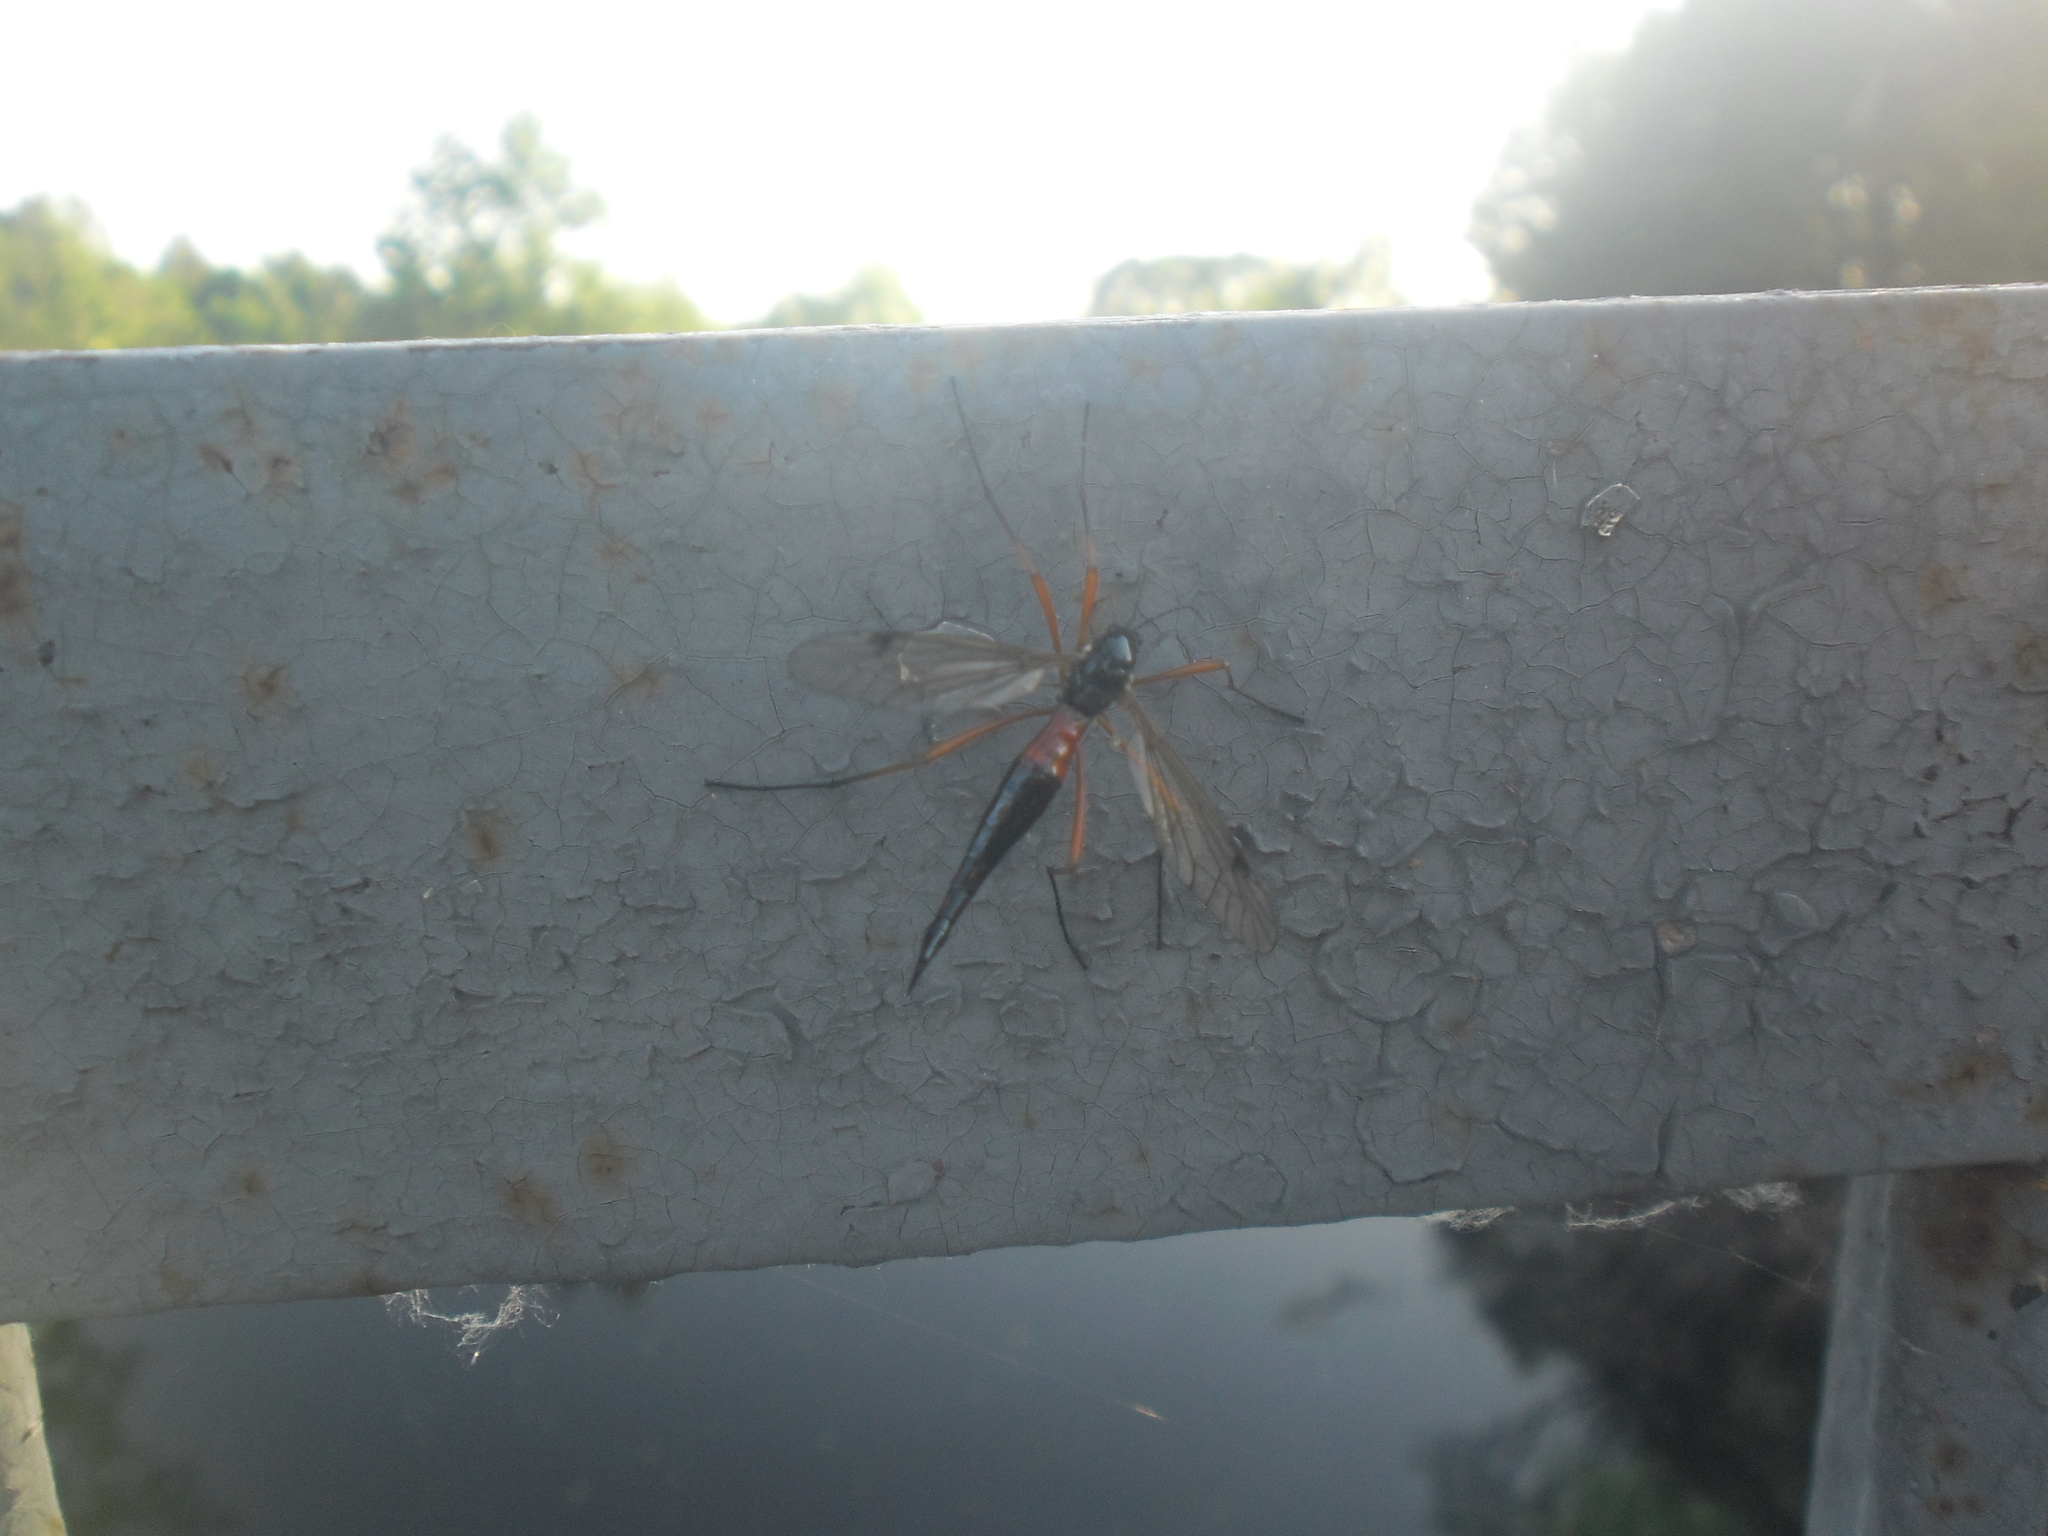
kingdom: Animalia
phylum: Arthropoda
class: Insecta
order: Diptera
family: Tipulidae
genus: Tanyptera
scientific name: Tanyptera atrata
